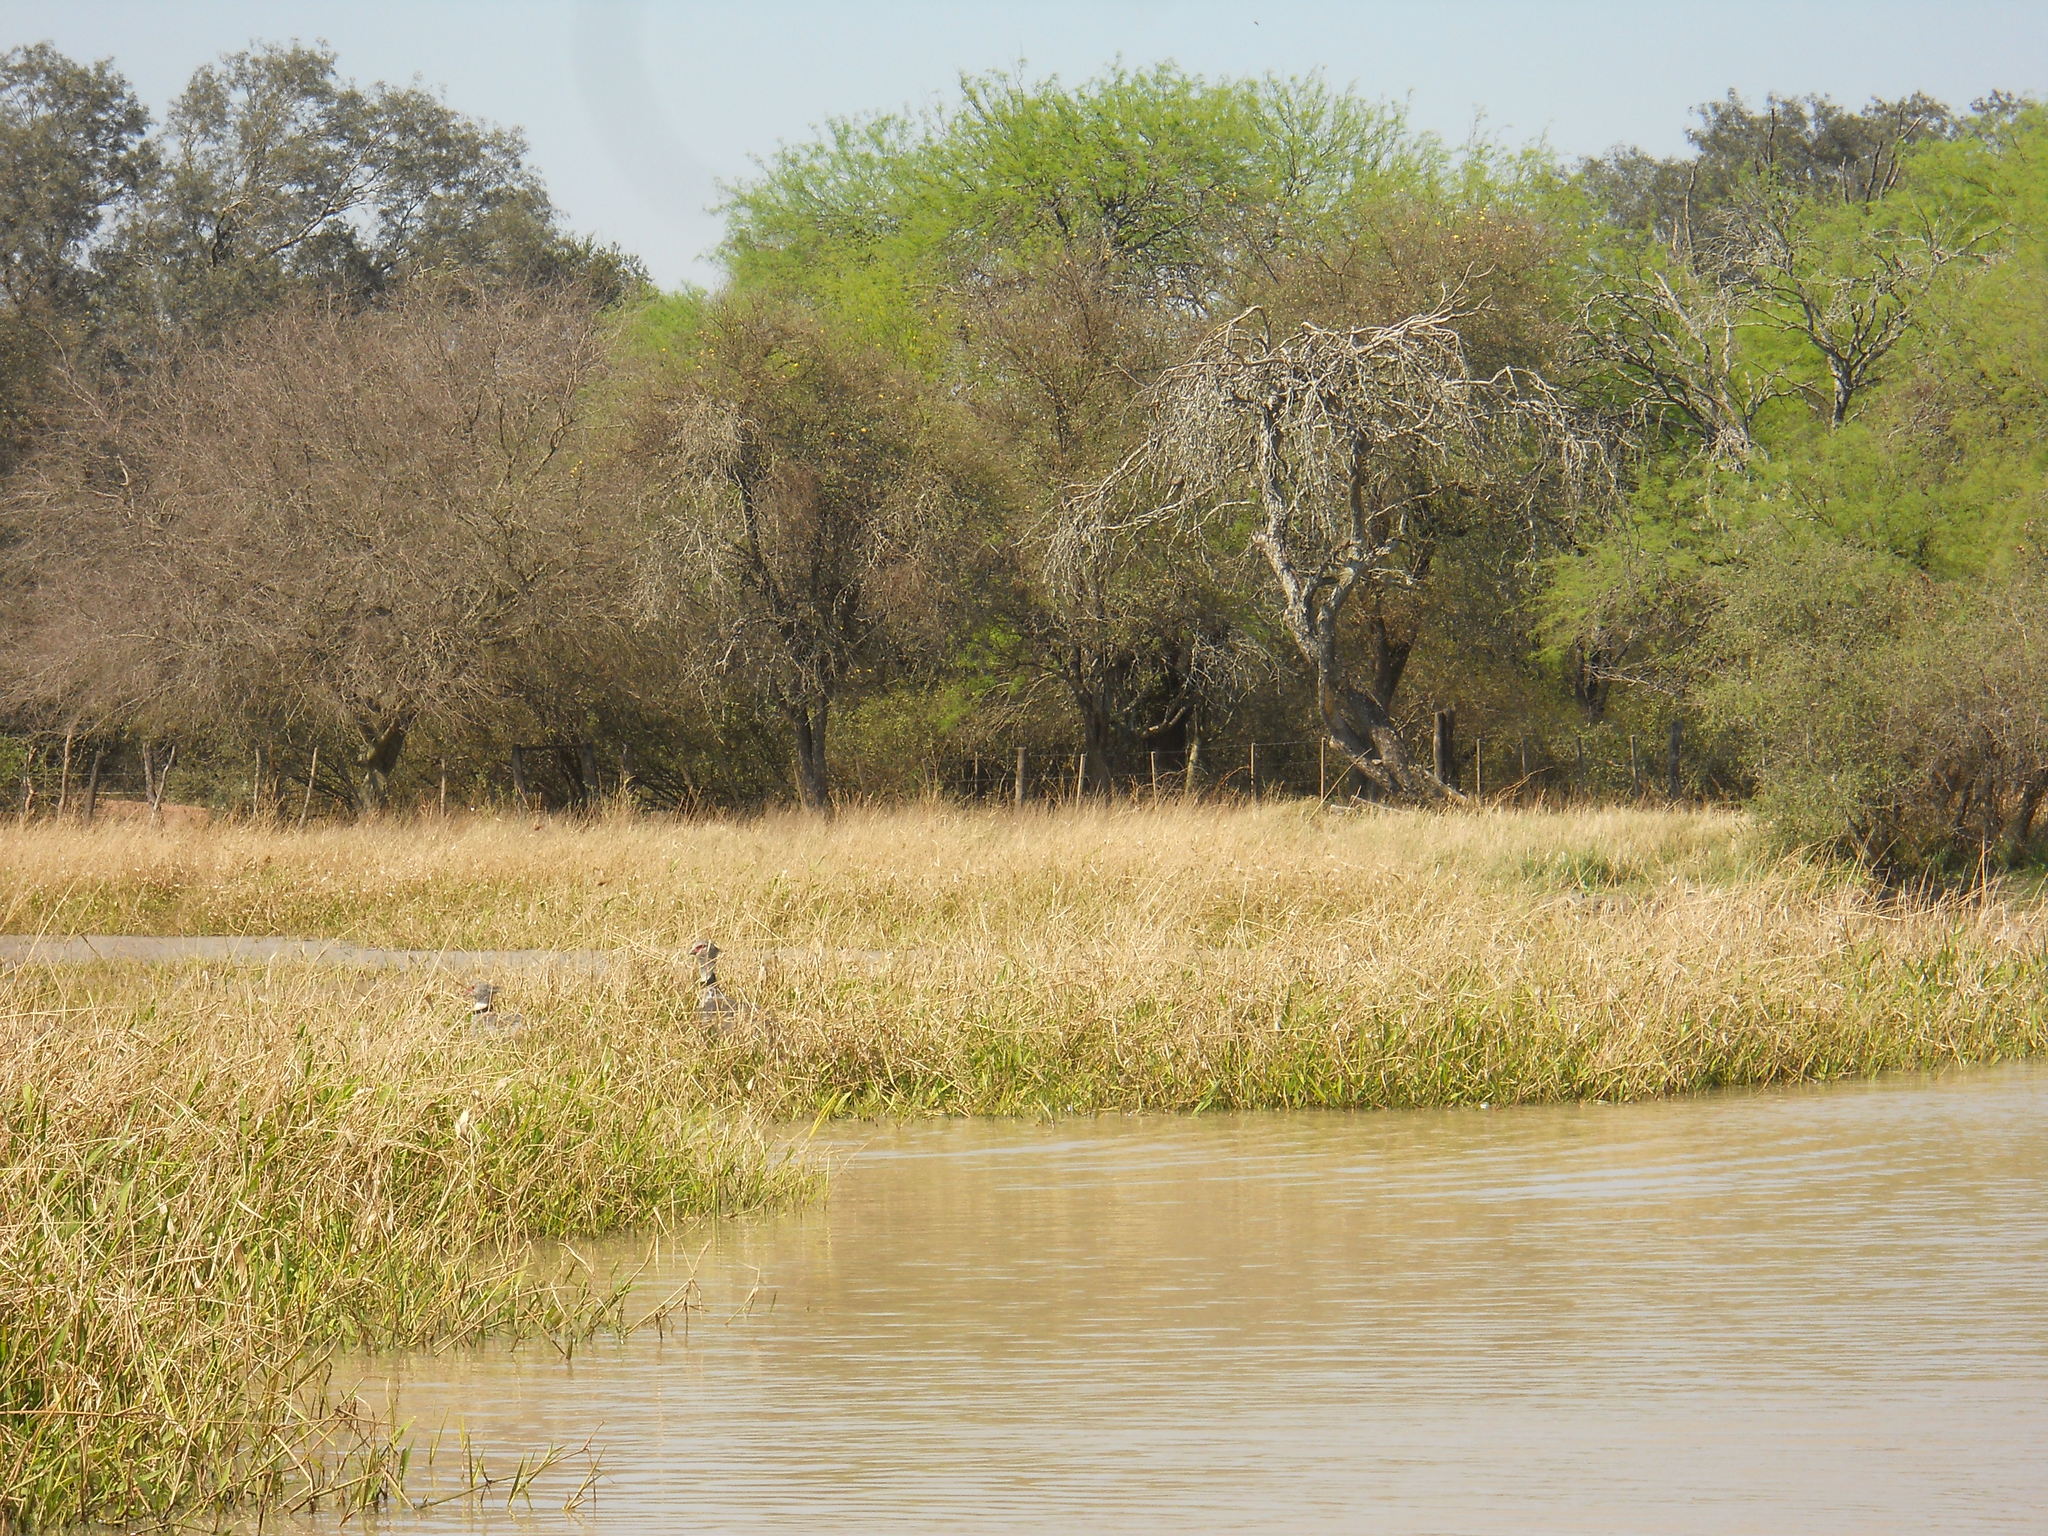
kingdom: Animalia
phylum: Chordata
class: Aves
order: Anseriformes
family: Anhimidae
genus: Chauna
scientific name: Chauna torquata
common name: Southern screamer
